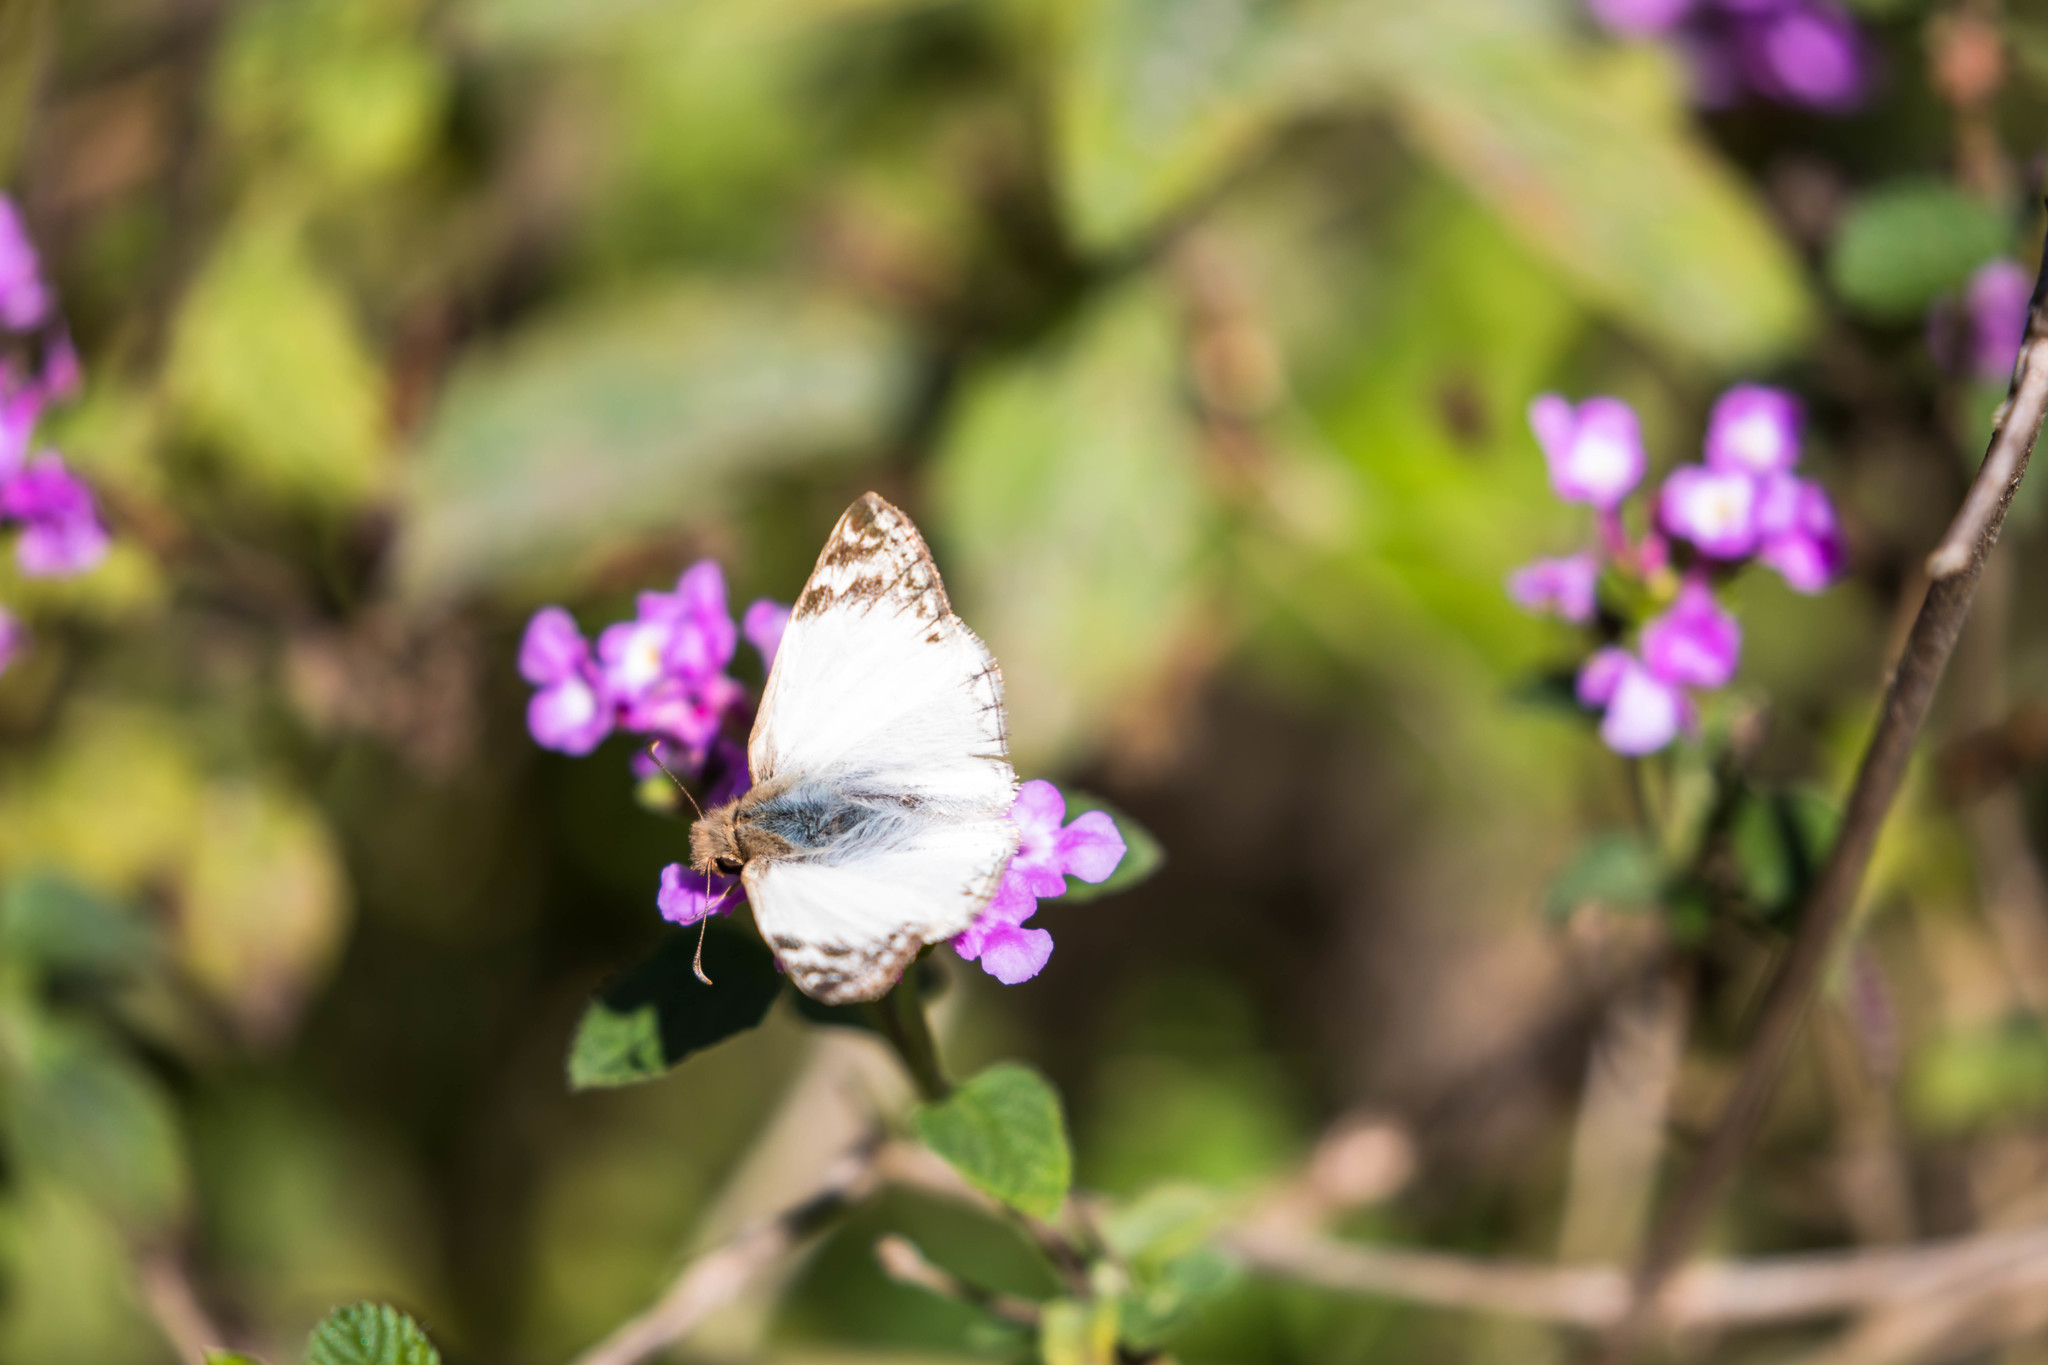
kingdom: Animalia
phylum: Arthropoda
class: Insecta
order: Lepidoptera
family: Hesperiidae
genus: Heliopetes
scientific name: Heliopetes laviana
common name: Laviana white-skipper
